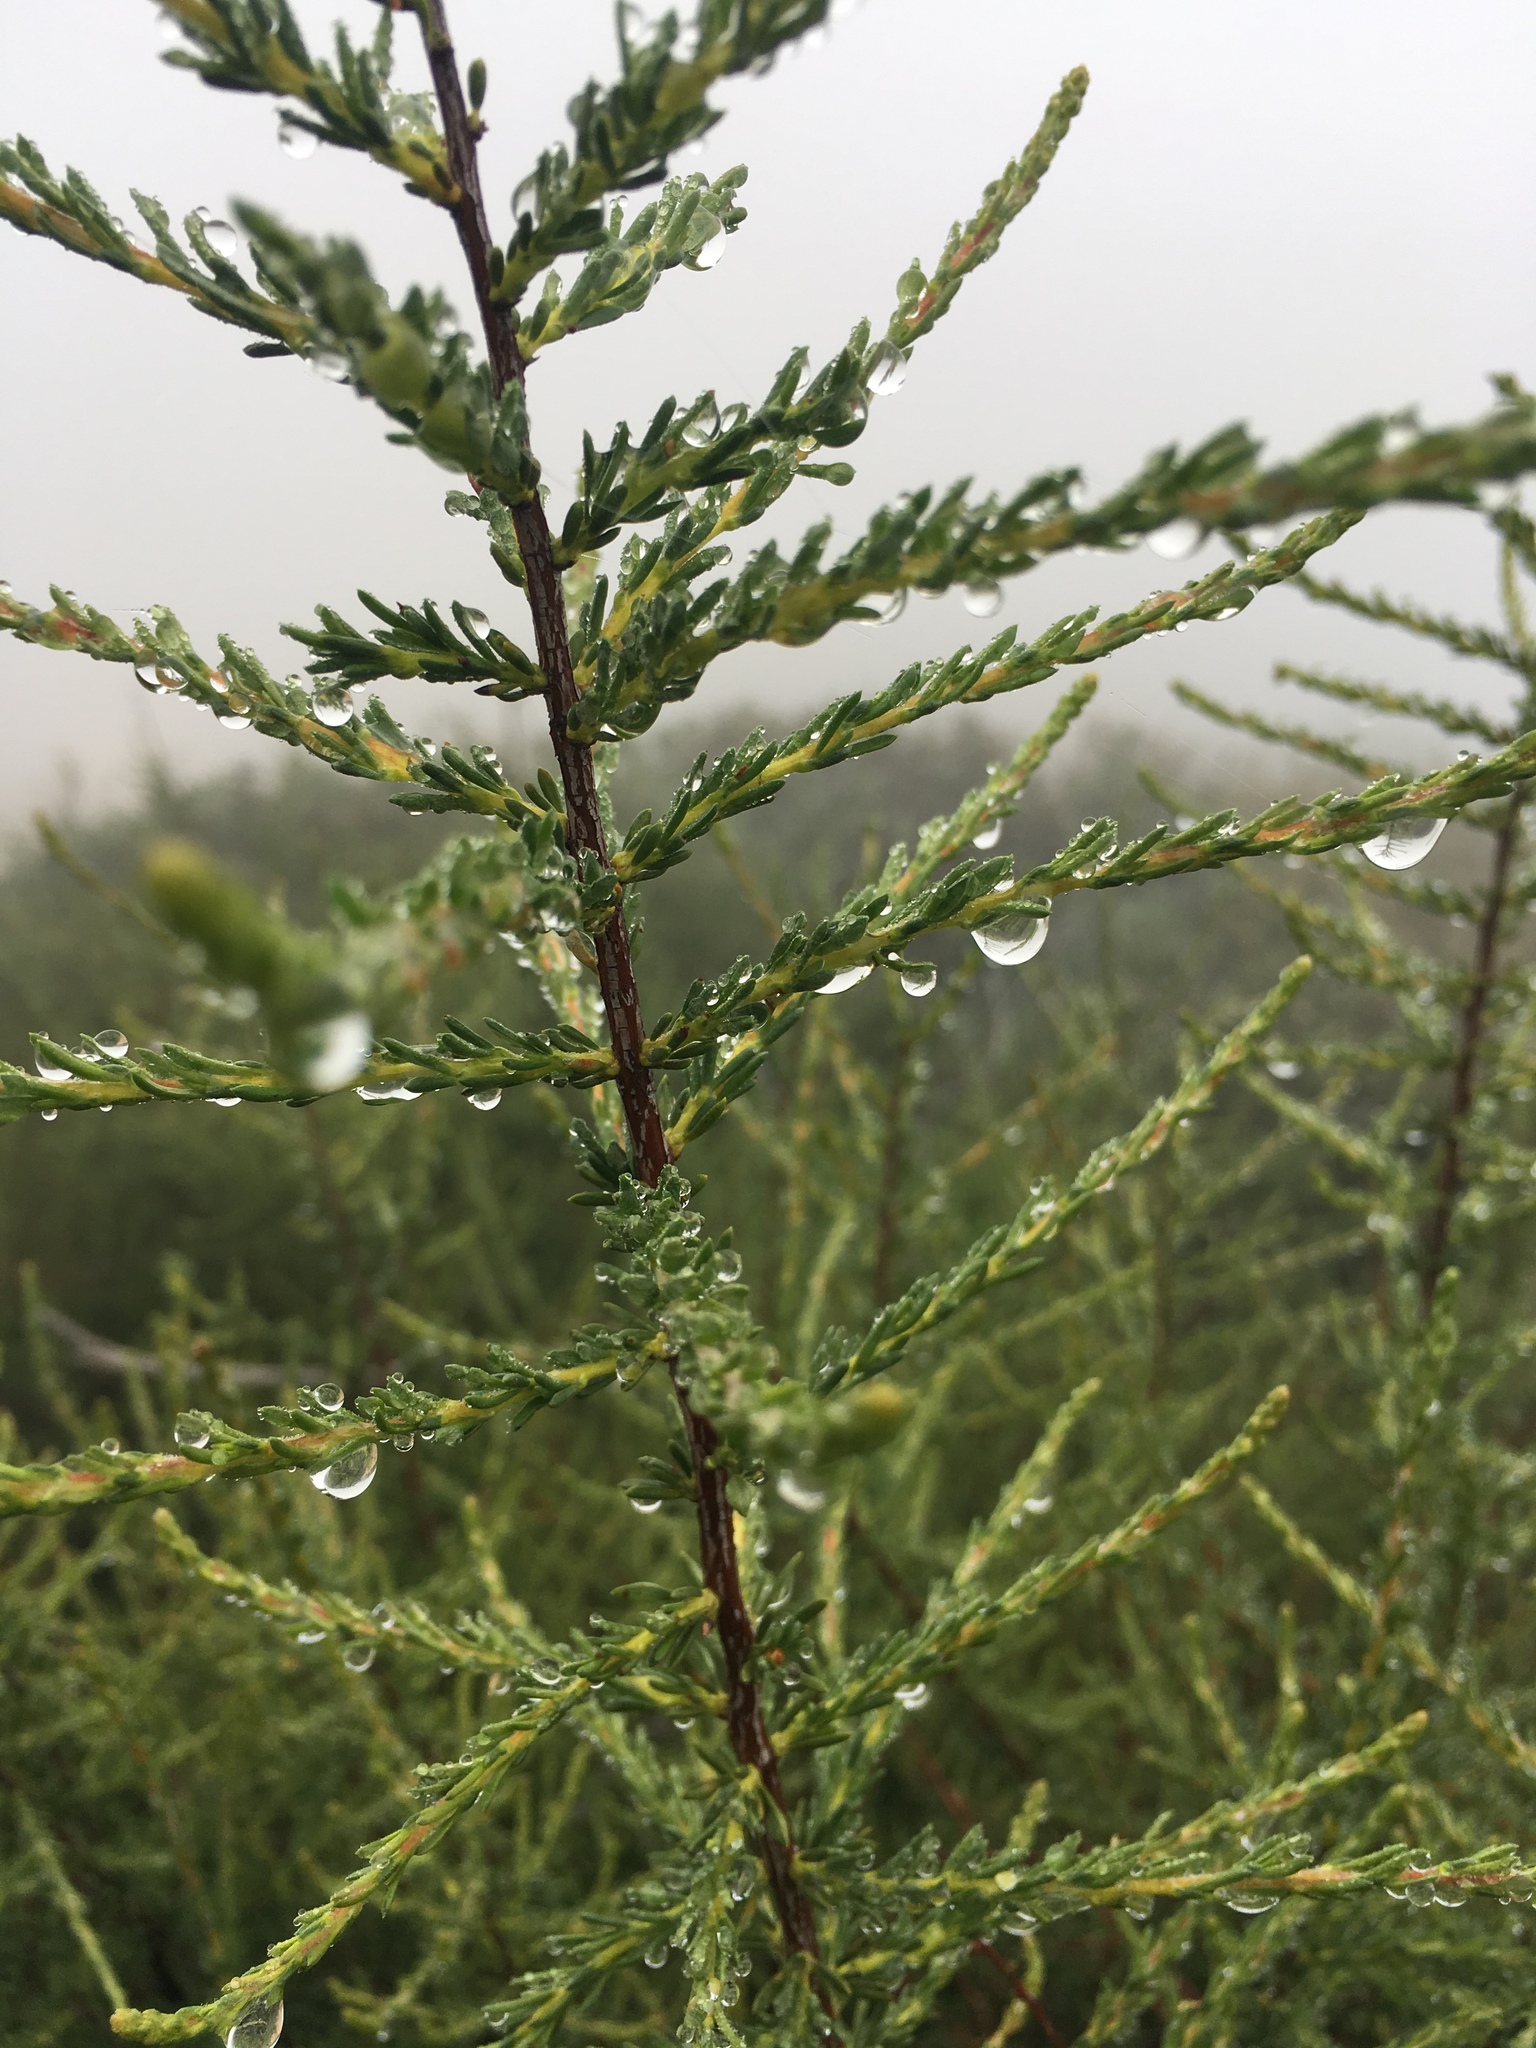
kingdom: Plantae
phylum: Tracheophyta
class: Magnoliopsida
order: Rosales
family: Rosaceae
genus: Adenostoma
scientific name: Adenostoma fasciculatum
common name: Chamise
